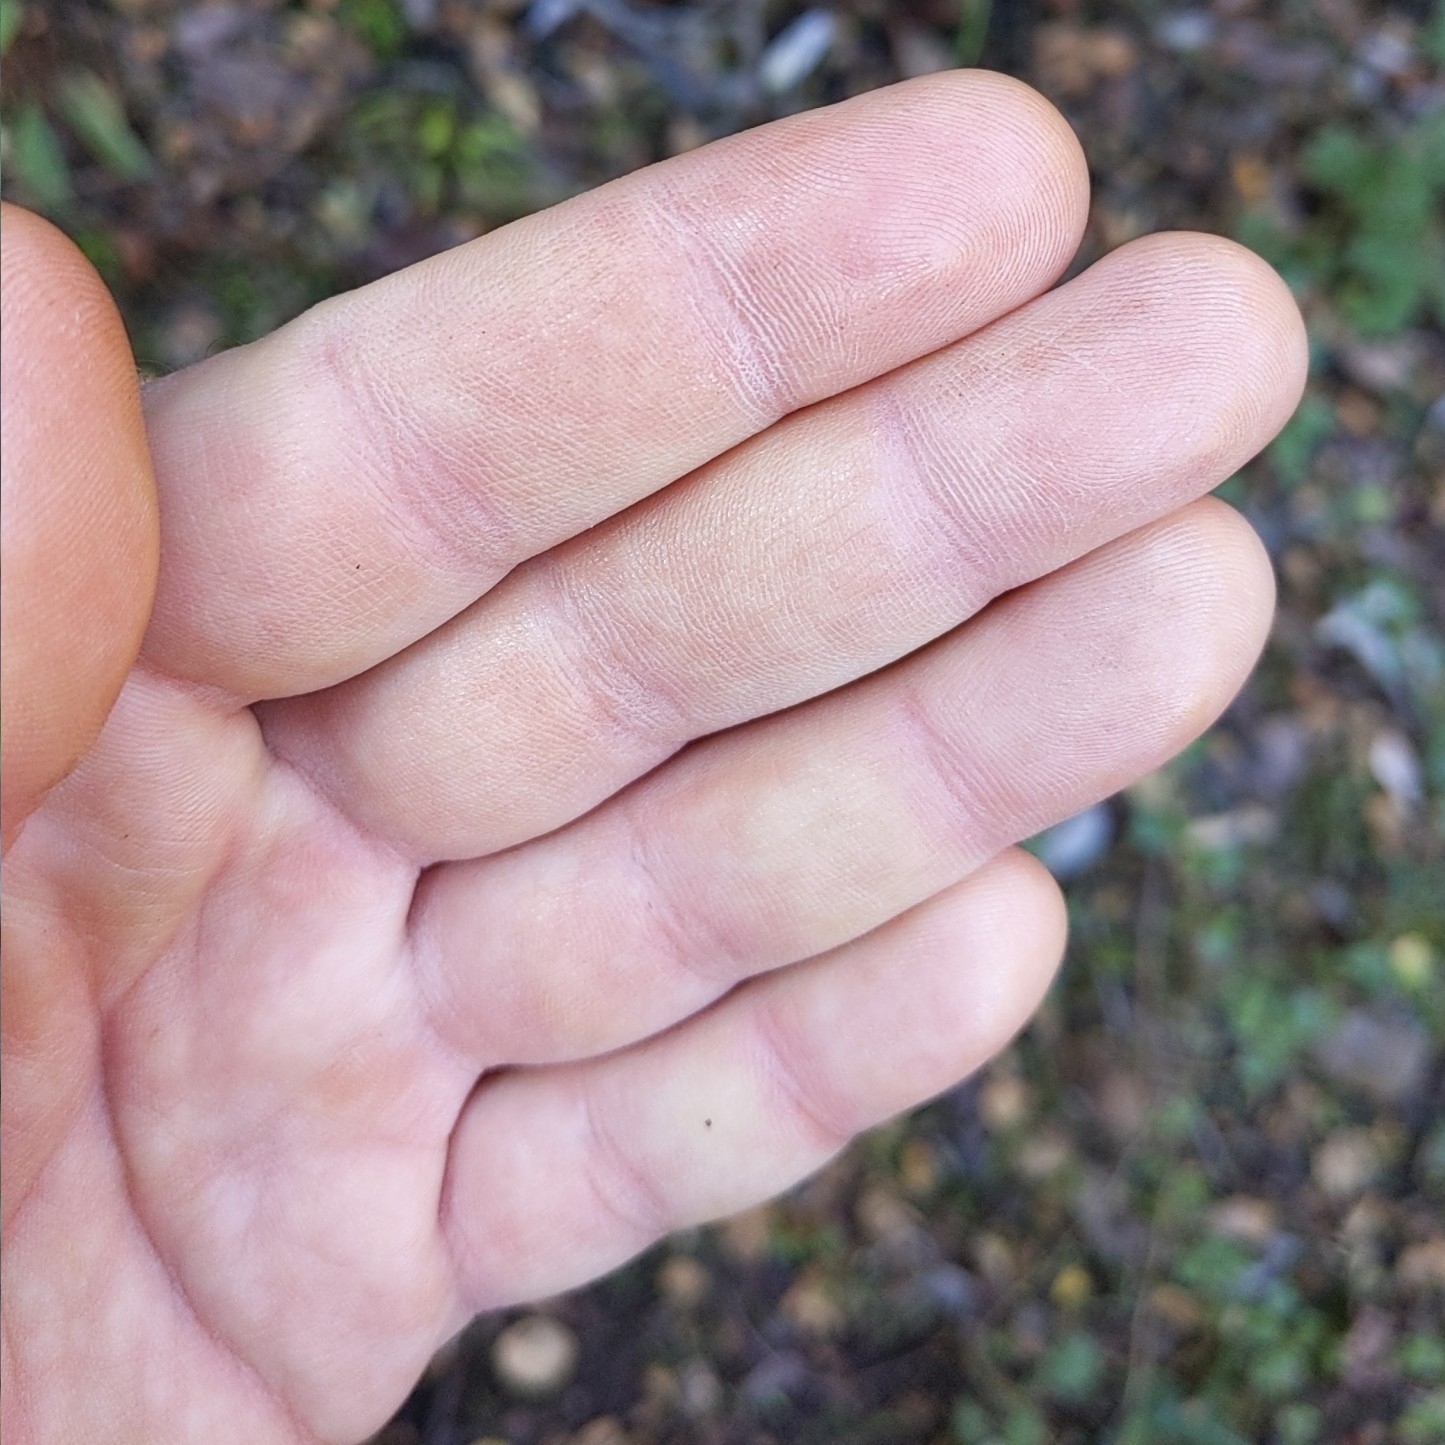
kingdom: Plantae
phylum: Tracheophyta
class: Magnoliopsida
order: Asterales
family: Asteraceae
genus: Pseudognaphalium
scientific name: Pseudognaphalium californicum
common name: California rabbit-tobacco
